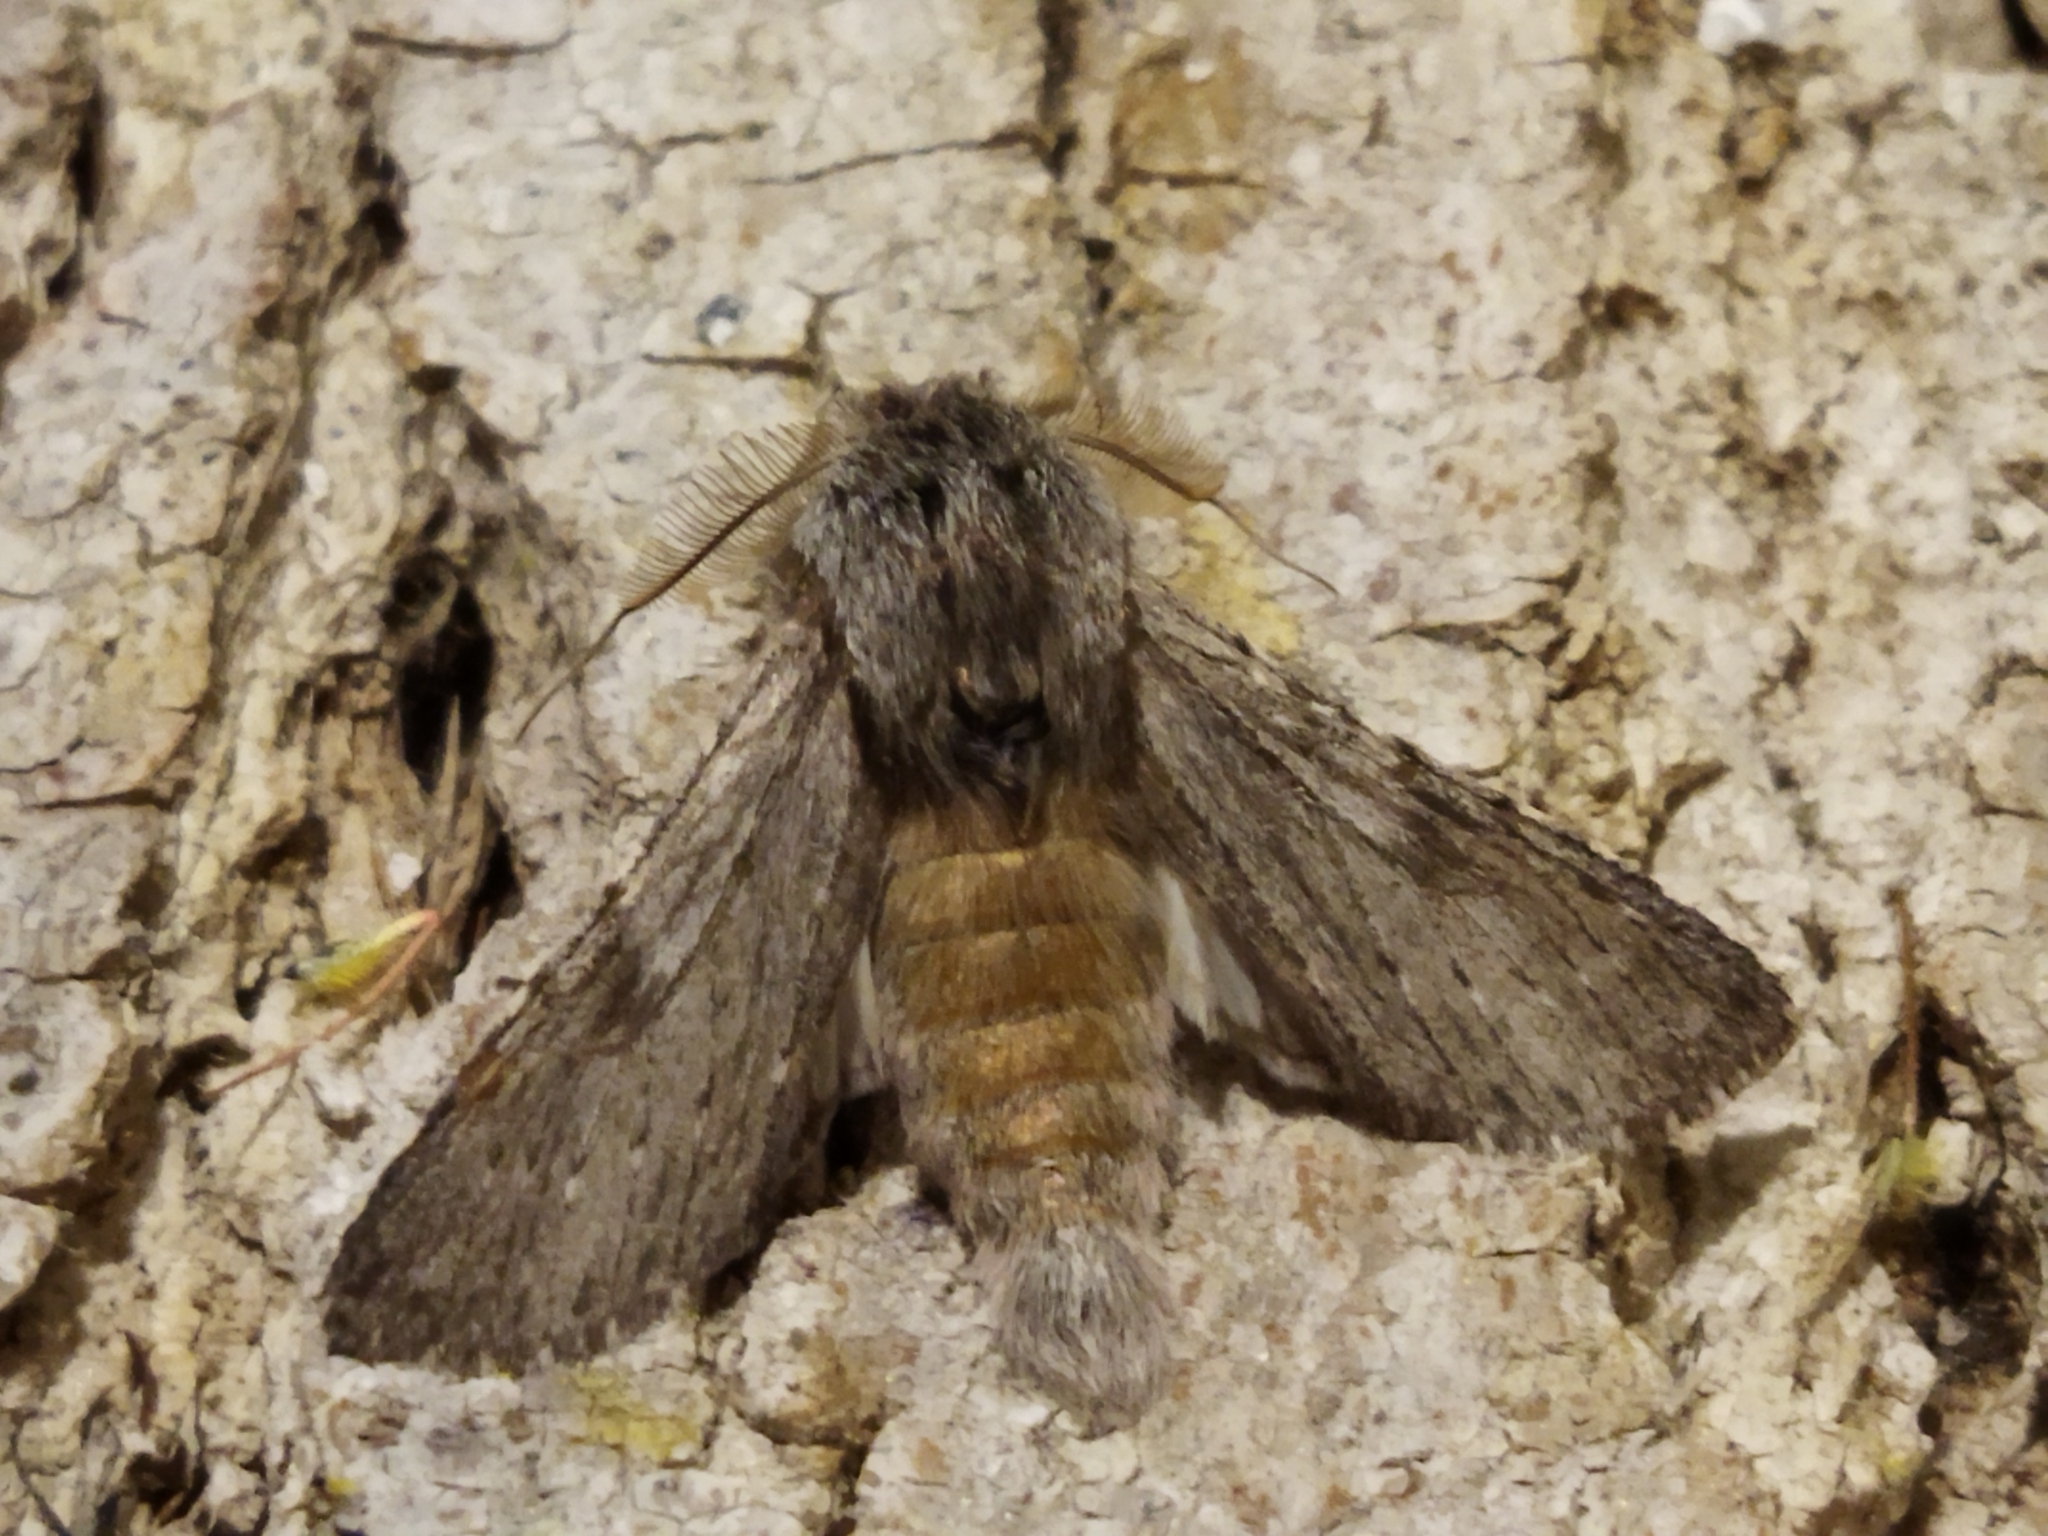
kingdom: Animalia
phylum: Arthropoda
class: Insecta
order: Lepidoptera
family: Notodontidae
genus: Dicranura
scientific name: Dicranura ulmi
